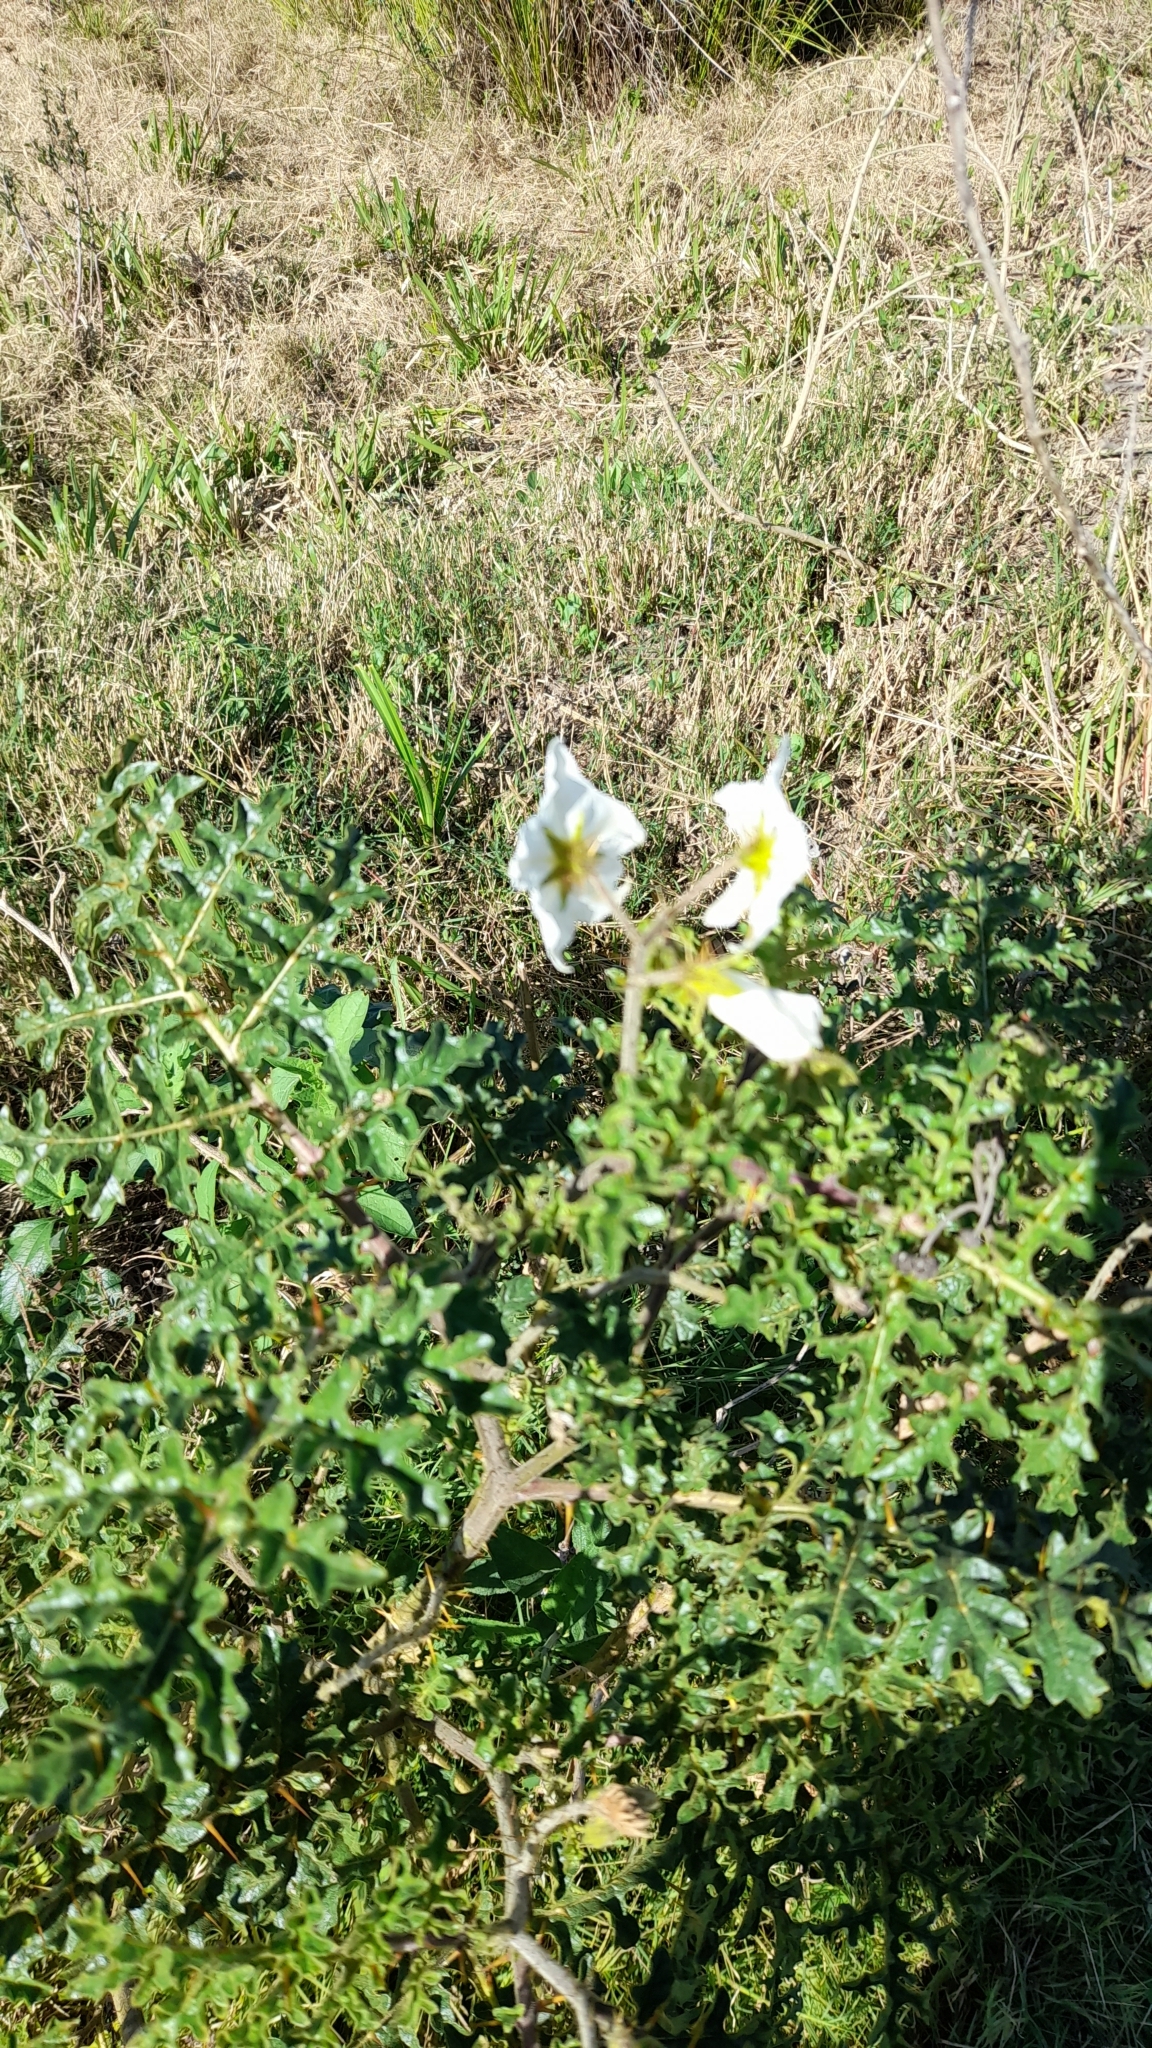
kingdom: Plantae
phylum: Tracheophyta
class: Magnoliopsida
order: Solanales
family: Solanaceae
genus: Solanum
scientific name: Solanum sisymbriifolium
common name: Red buffalo-bur
